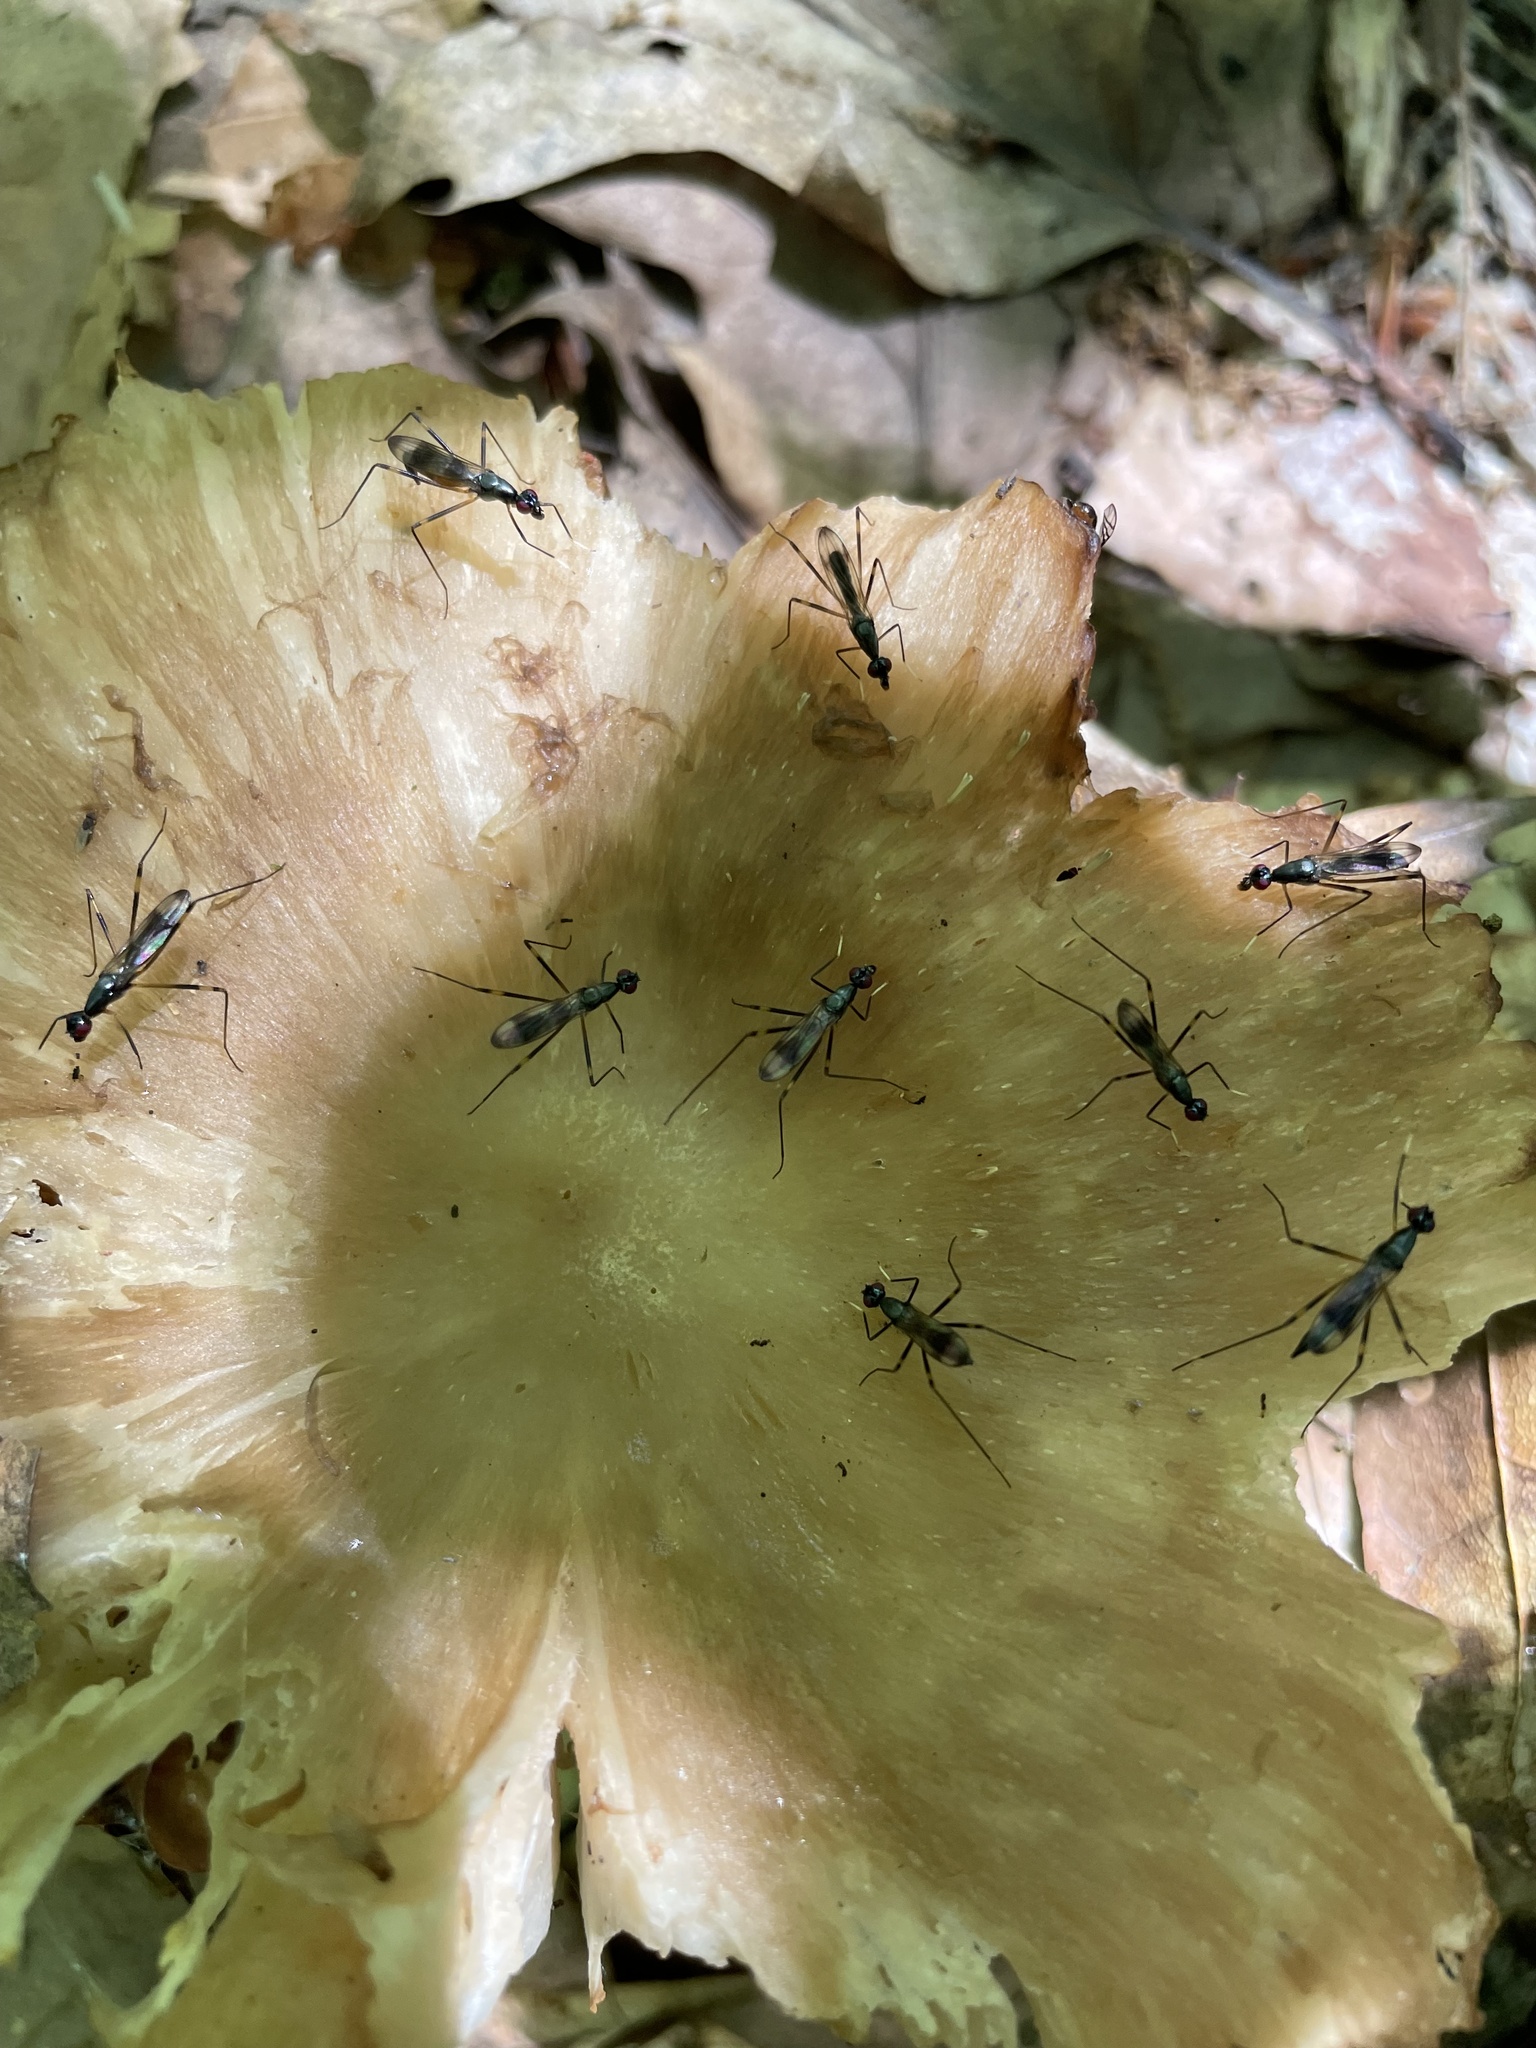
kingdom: Animalia
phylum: Arthropoda
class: Insecta
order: Diptera
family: Micropezidae
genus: Rainieria
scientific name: Rainieria antennaepes
